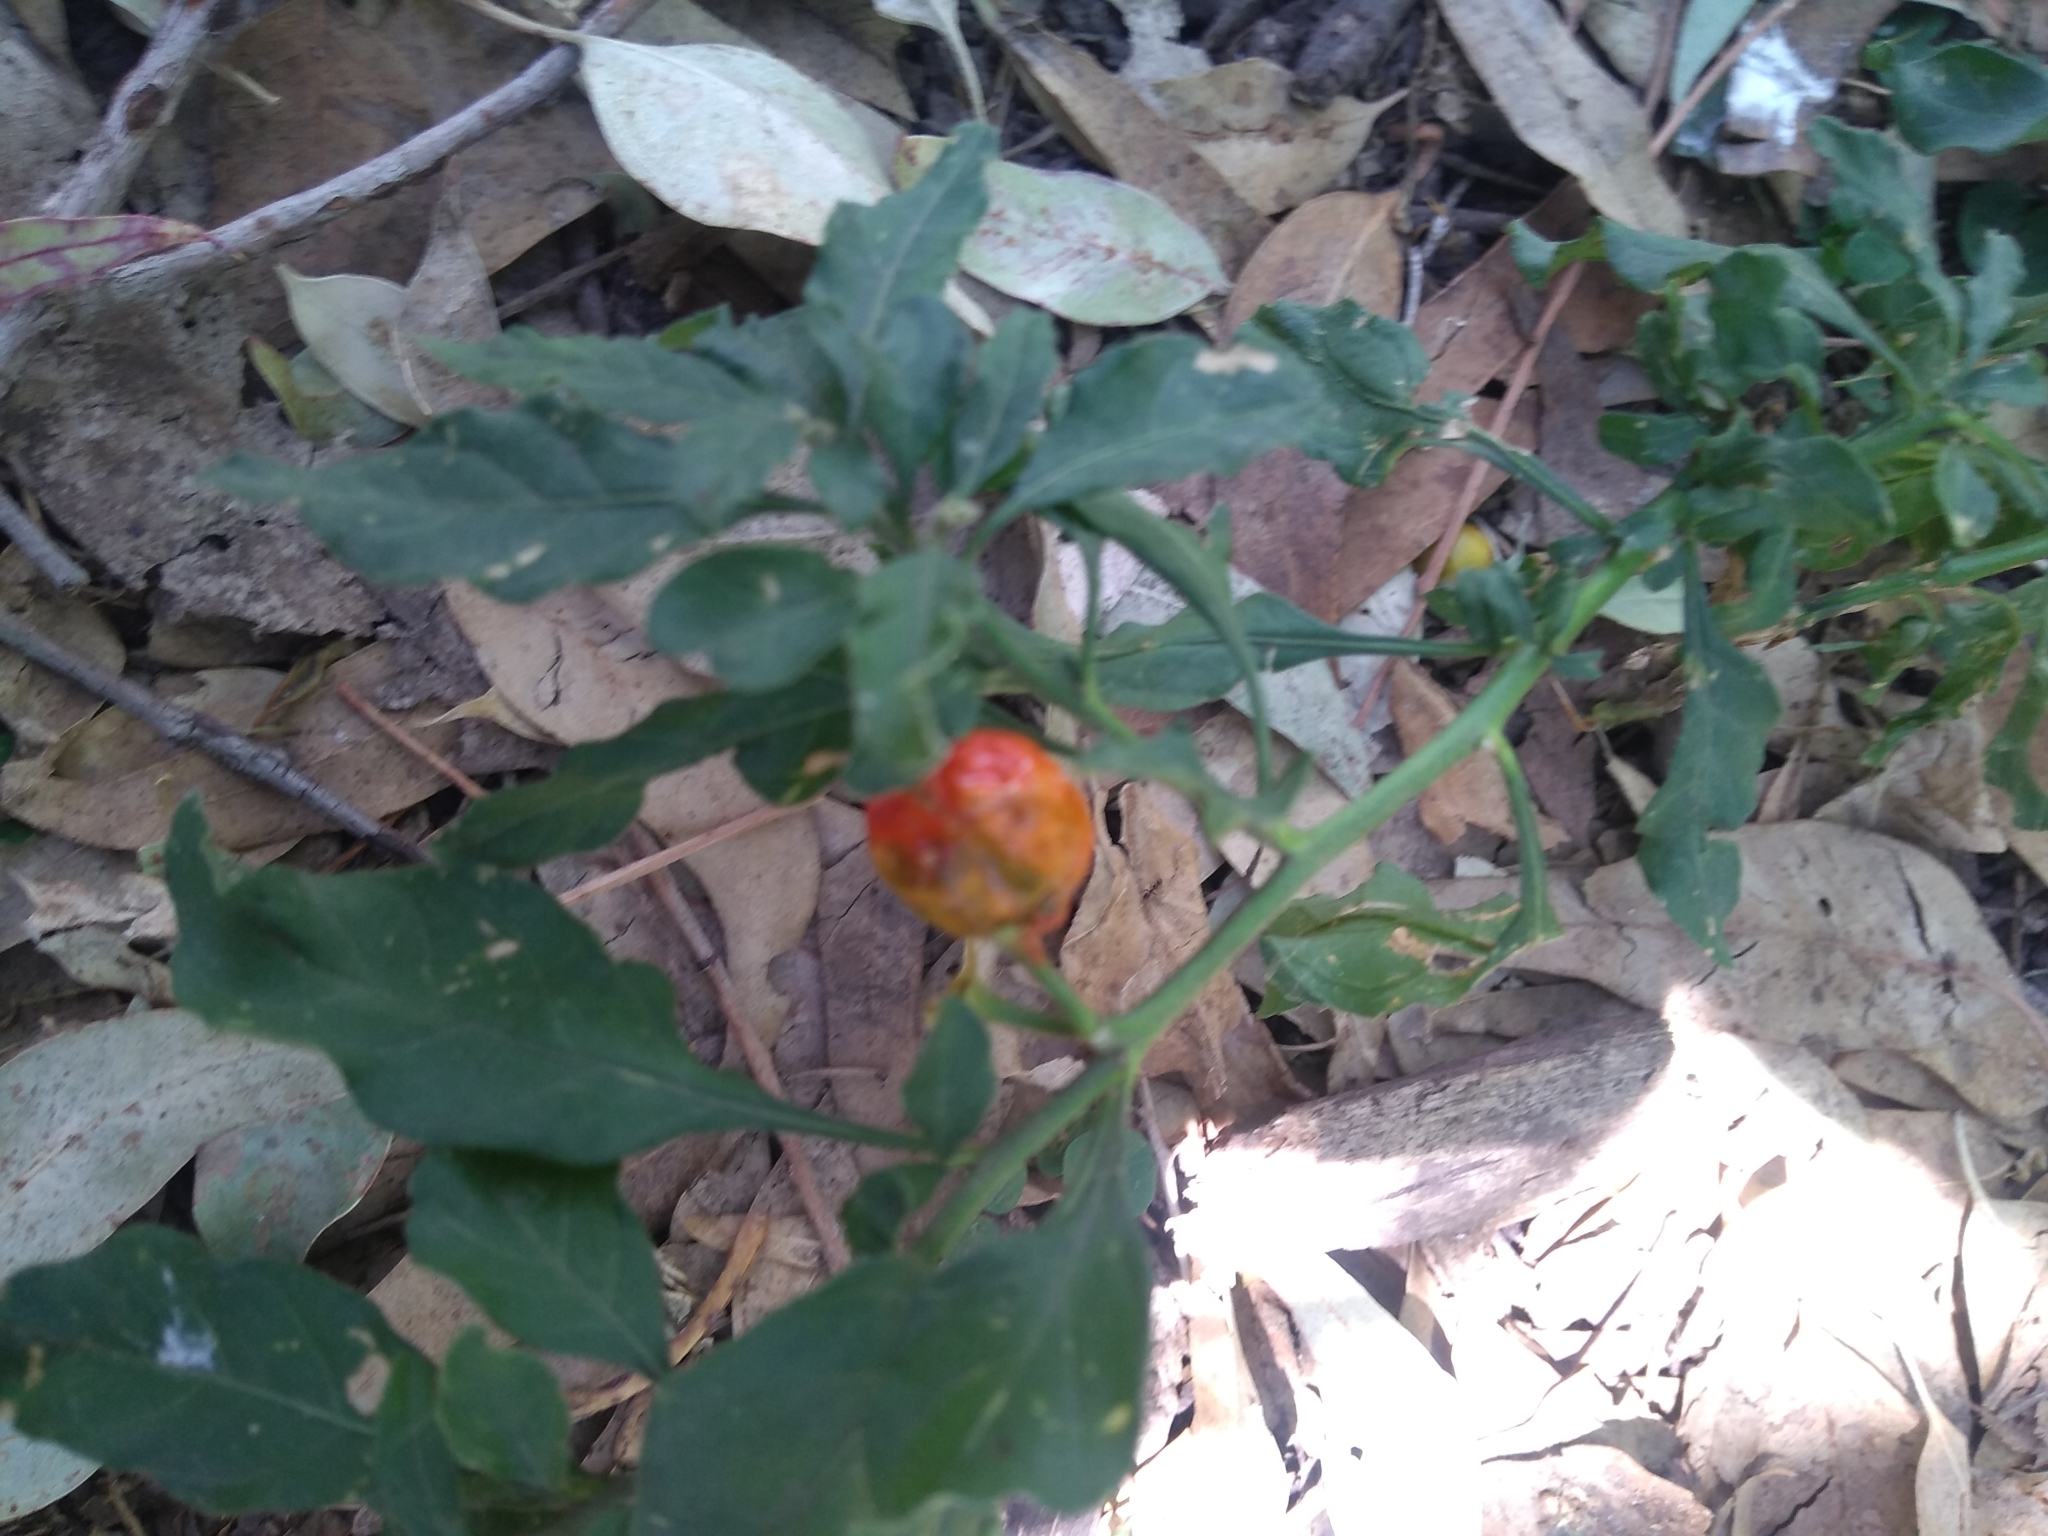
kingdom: Plantae
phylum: Tracheophyta
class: Magnoliopsida
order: Solanales
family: Solanaceae
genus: Solanum
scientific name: Solanum pseudocapsicum
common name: Jerusalem cherry
